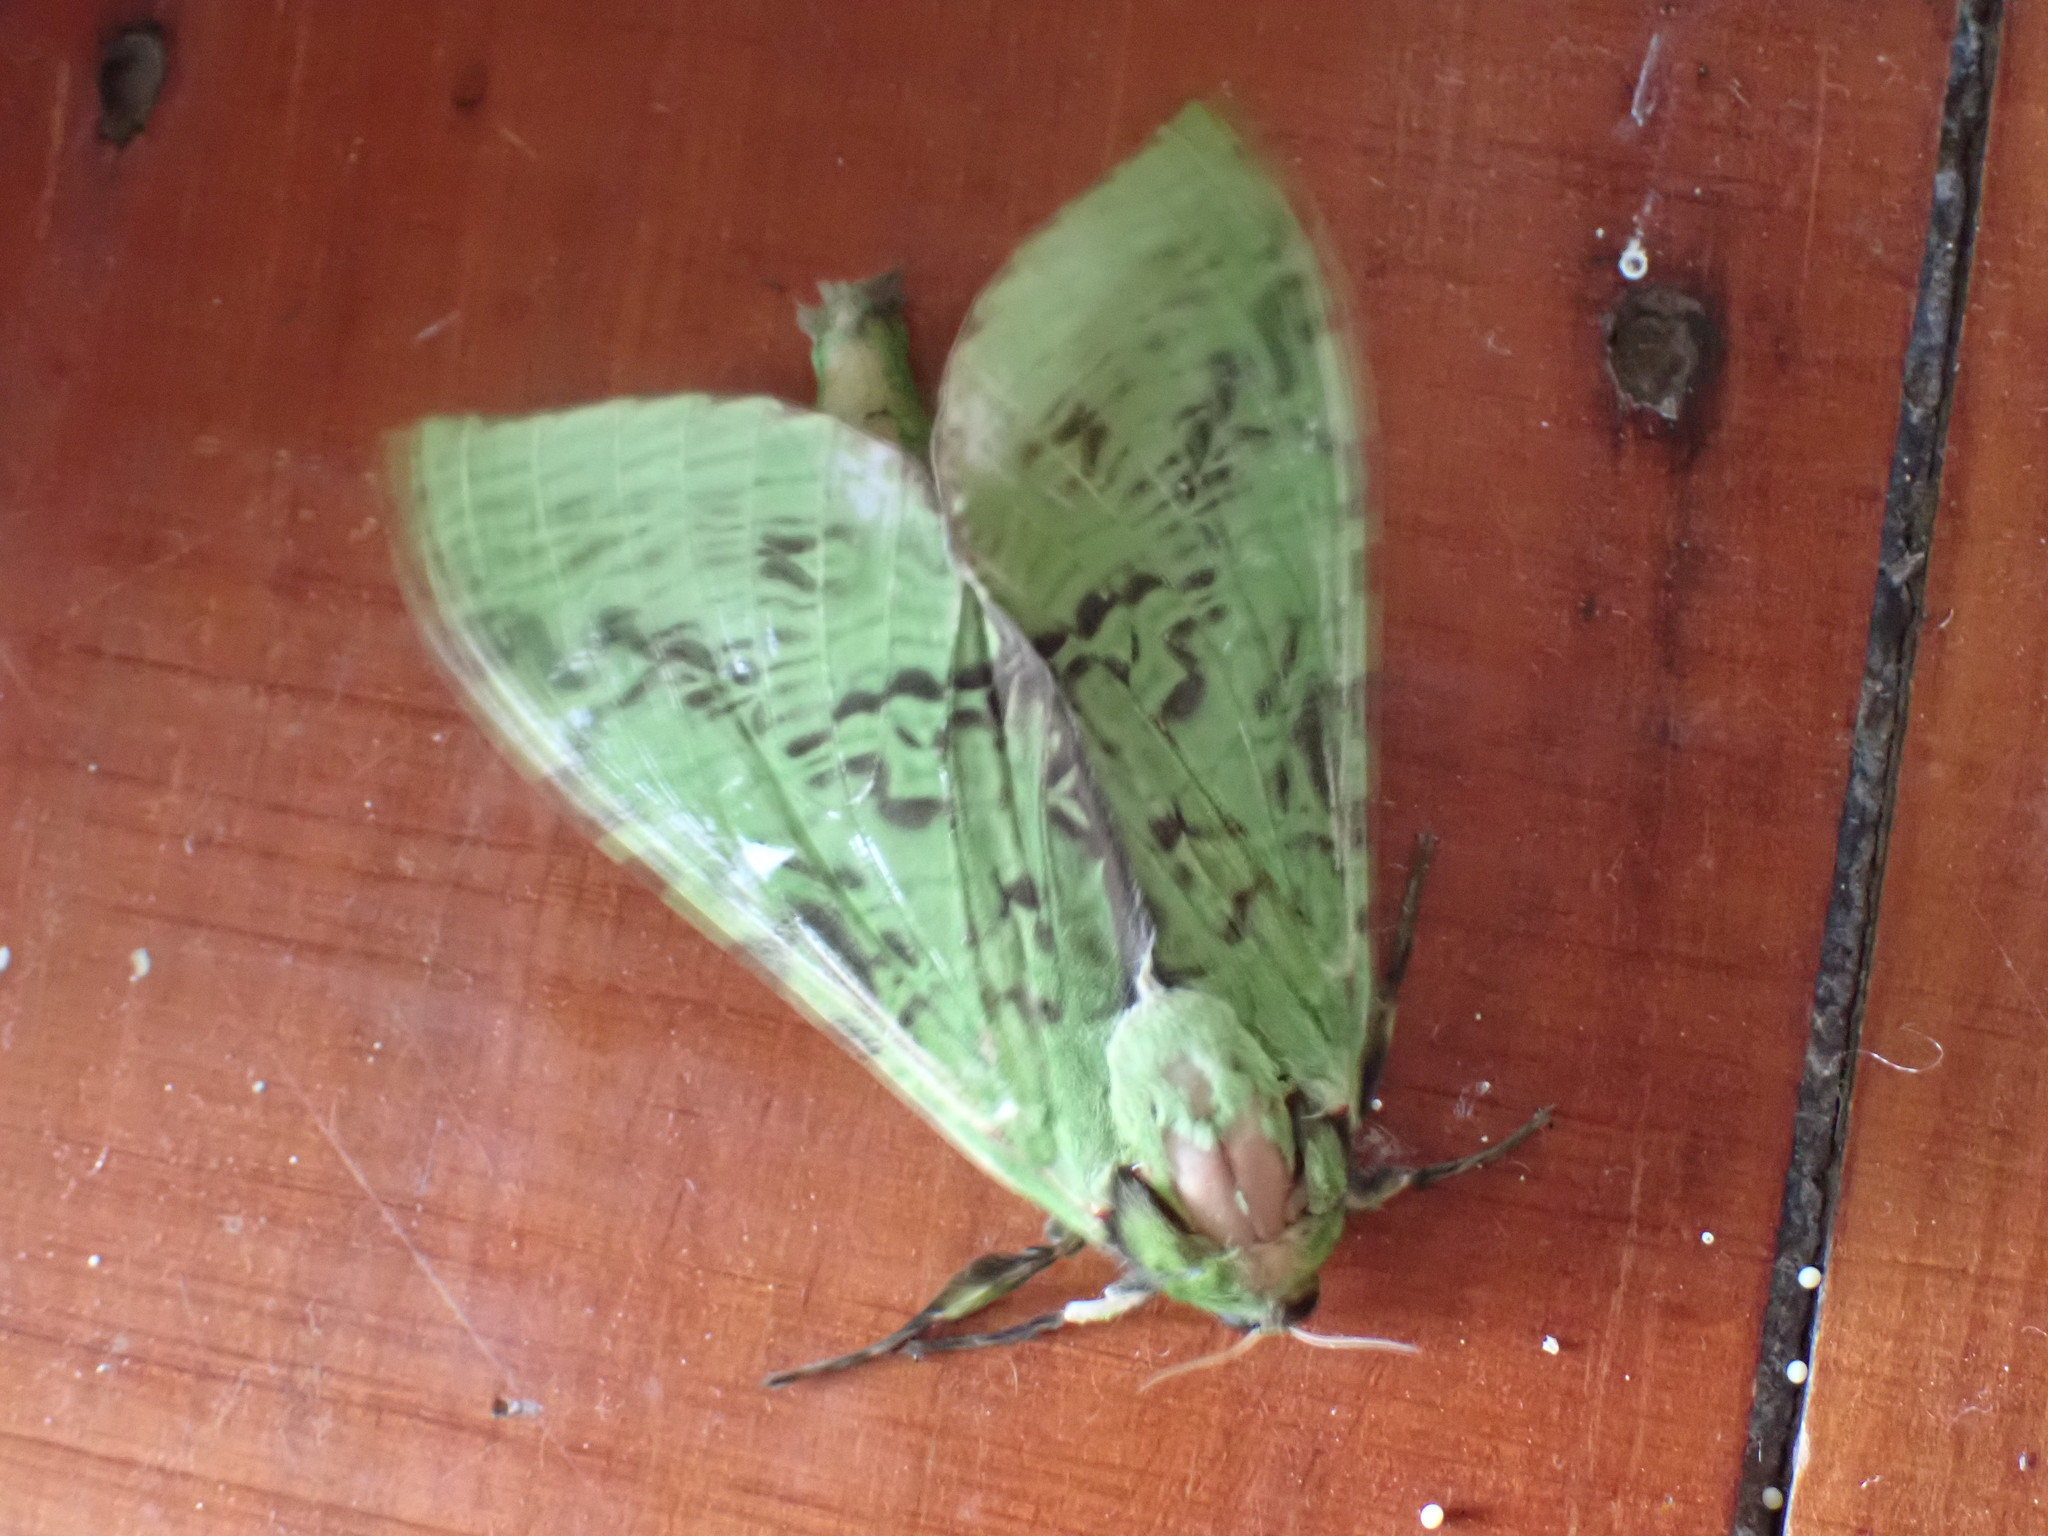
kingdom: Animalia
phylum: Arthropoda
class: Insecta
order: Lepidoptera
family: Hepialidae
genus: Aenetus
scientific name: Aenetus virescens
